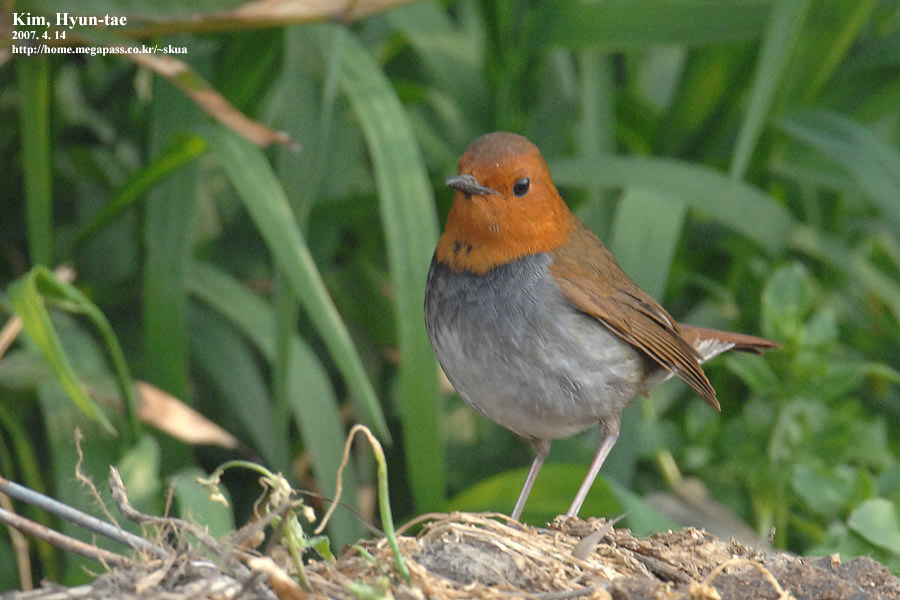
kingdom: Animalia
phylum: Chordata
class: Aves
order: Passeriformes
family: Muscicapidae
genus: Erithacus
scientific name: Erithacus akahige
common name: Japanese robin
